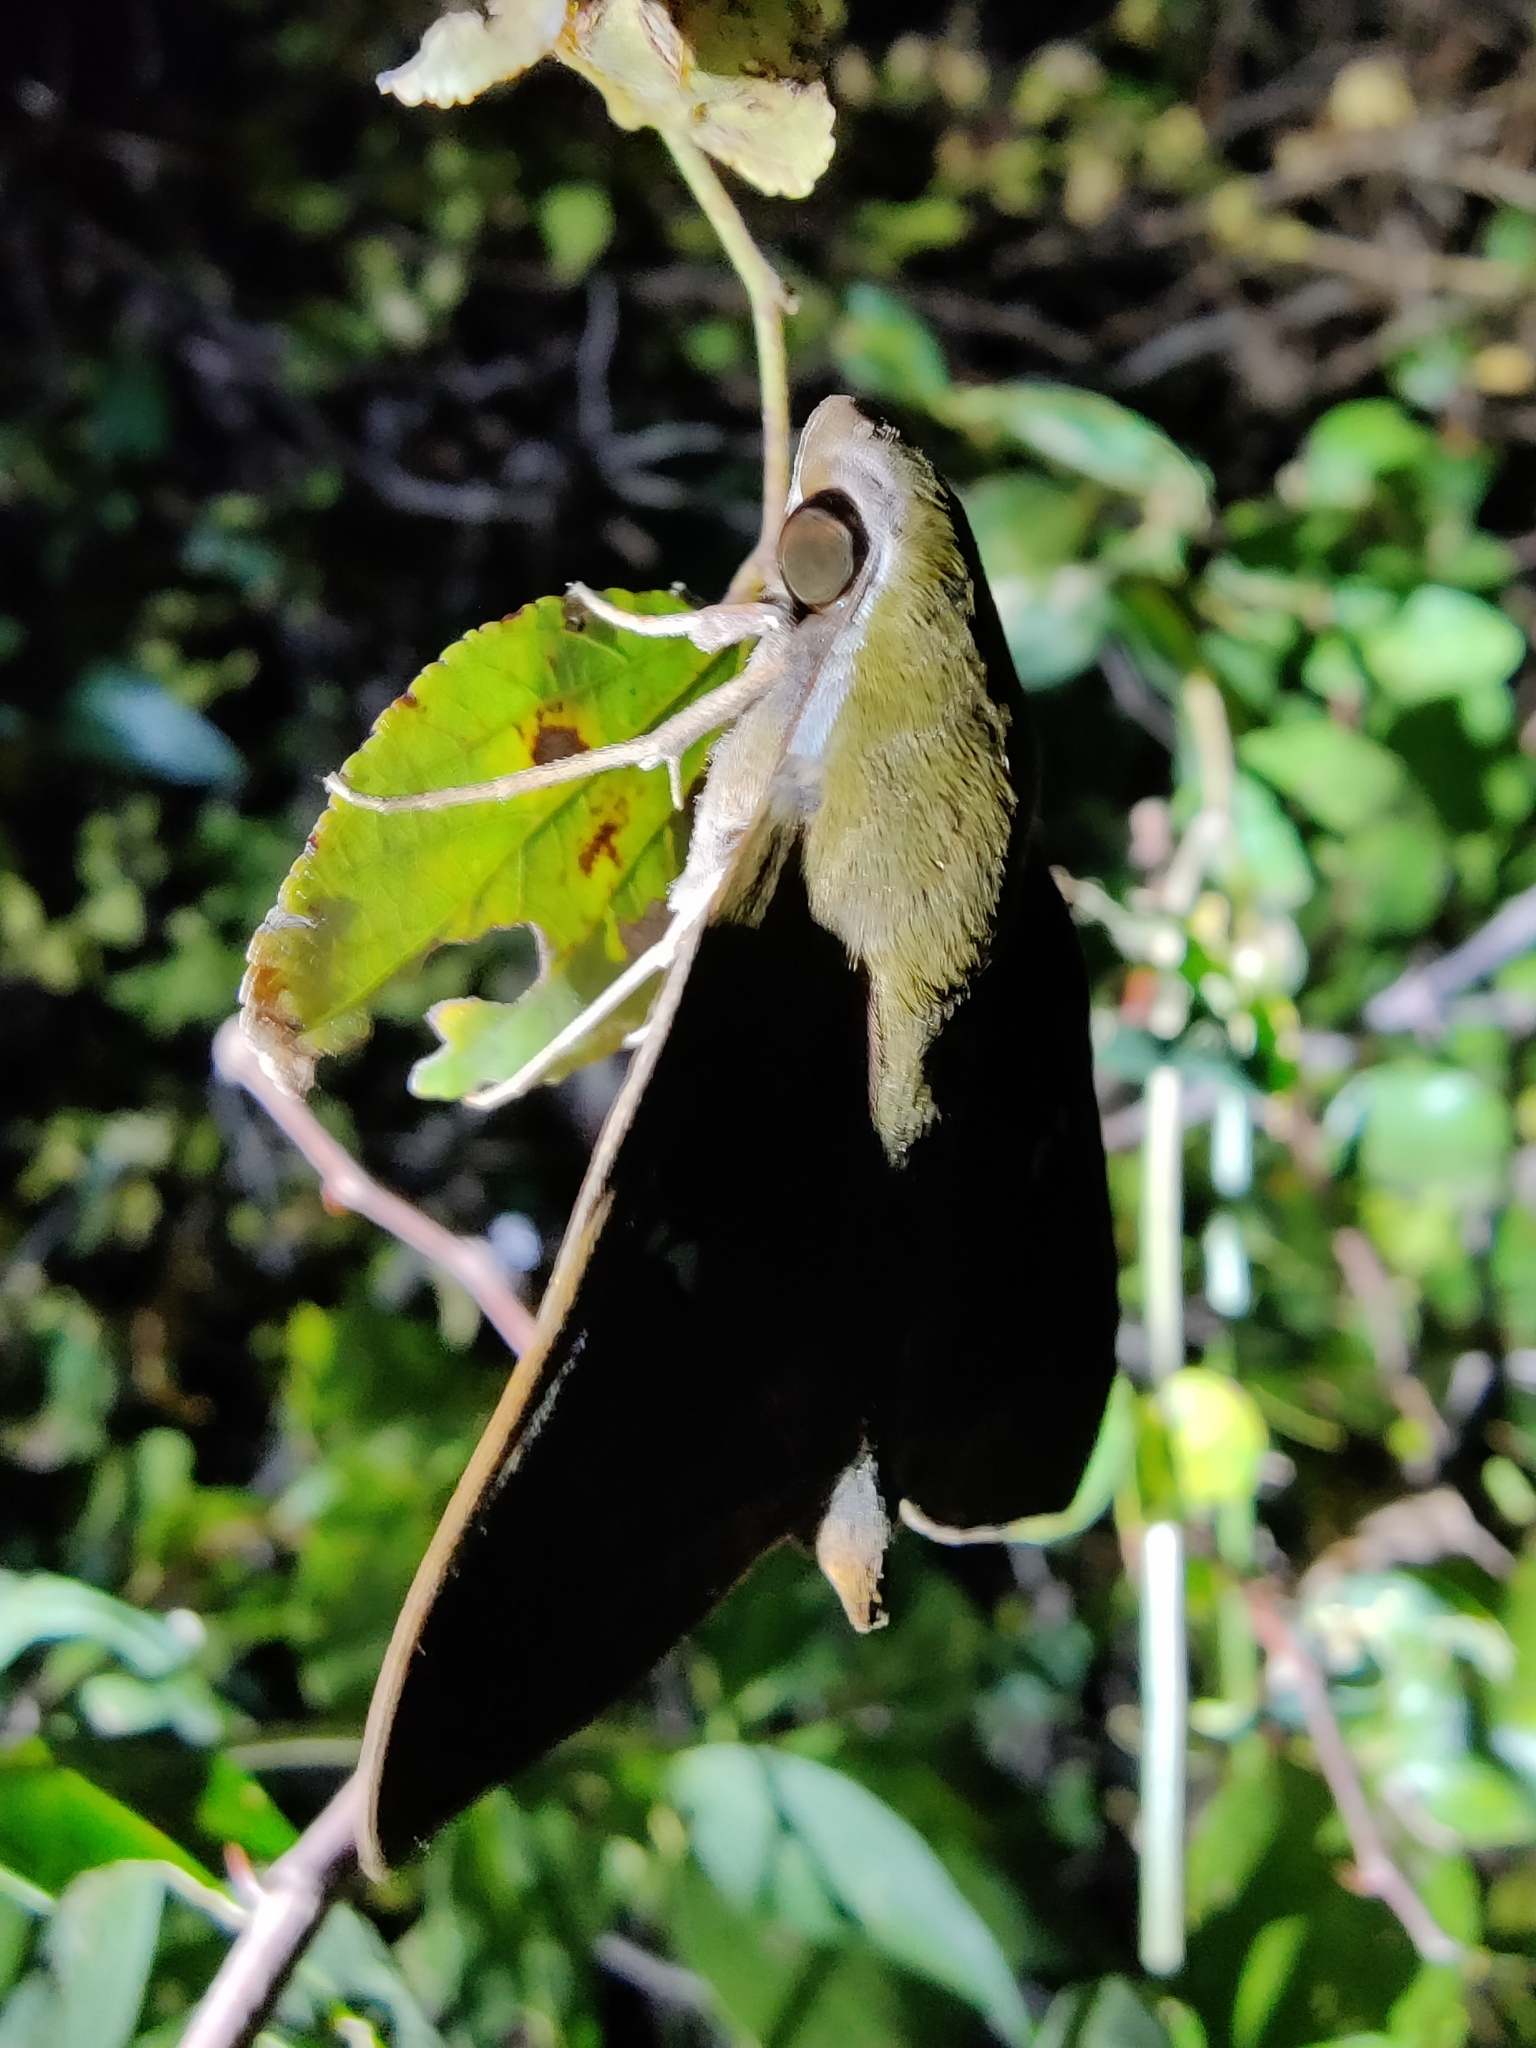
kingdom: Animalia
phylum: Arthropoda
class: Insecta
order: Lepidoptera
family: Sphingidae
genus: Nephele
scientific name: Nephele hespera
